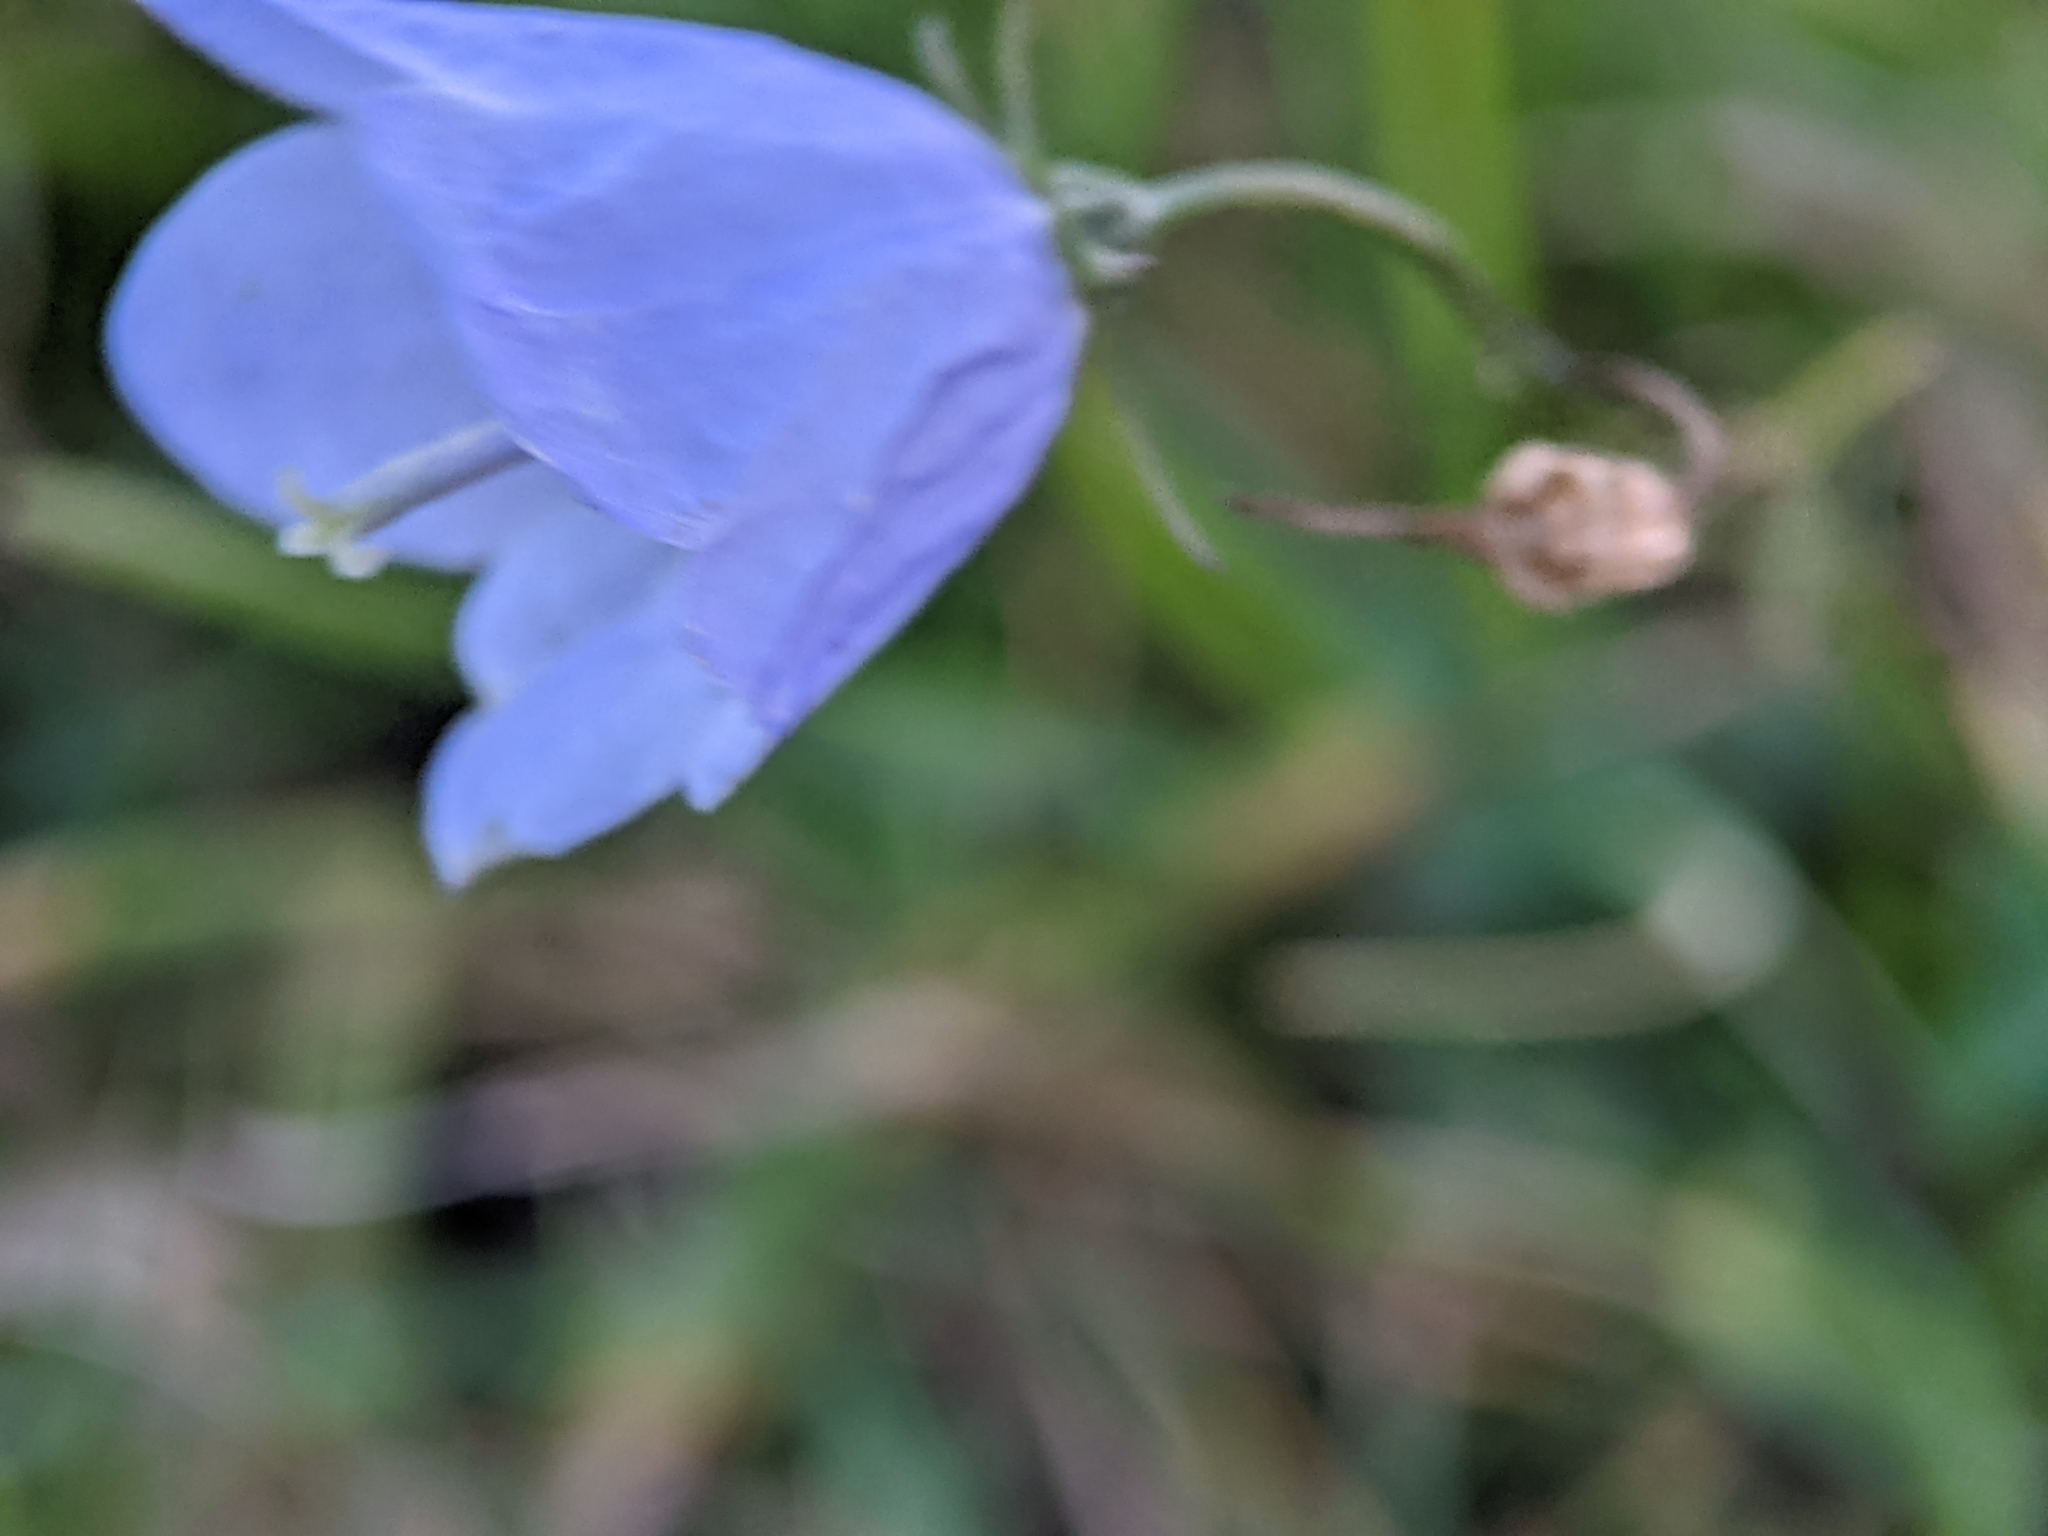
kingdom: Plantae
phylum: Tracheophyta
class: Magnoliopsida
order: Asterales
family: Campanulaceae
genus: Campanula
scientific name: Campanula rotundifolia
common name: Harebell
